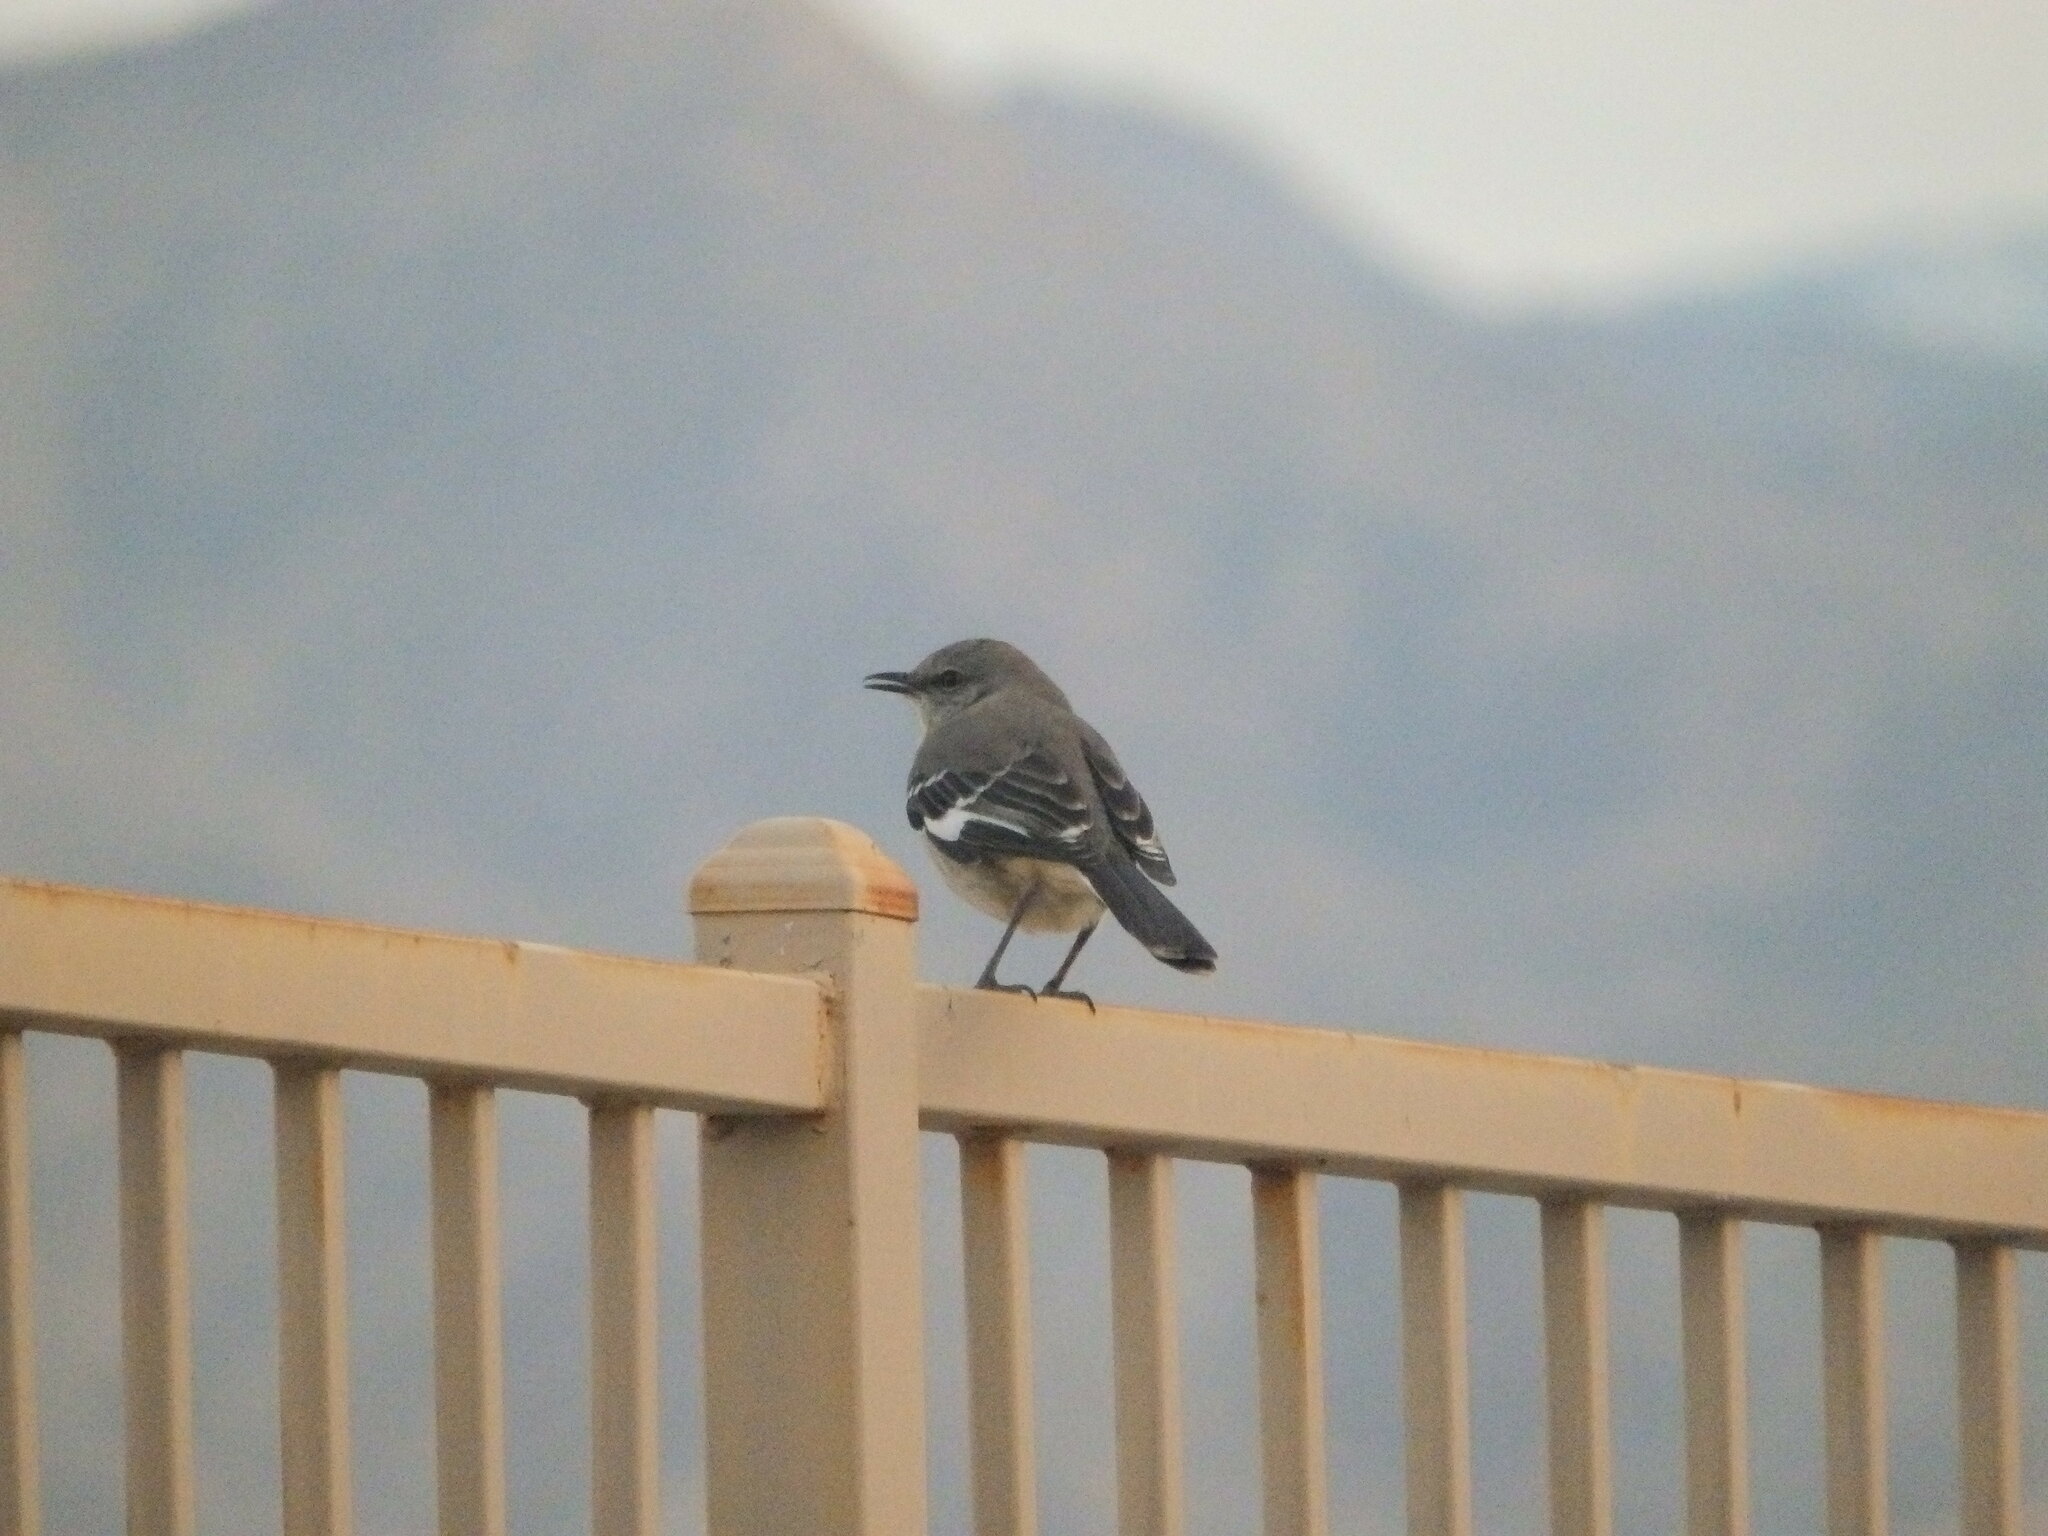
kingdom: Animalia
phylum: Chordata
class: Aves
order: Passeriformes
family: Mimidae
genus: Mimus
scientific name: Mimus polyglottos
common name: Northern mockingbird
